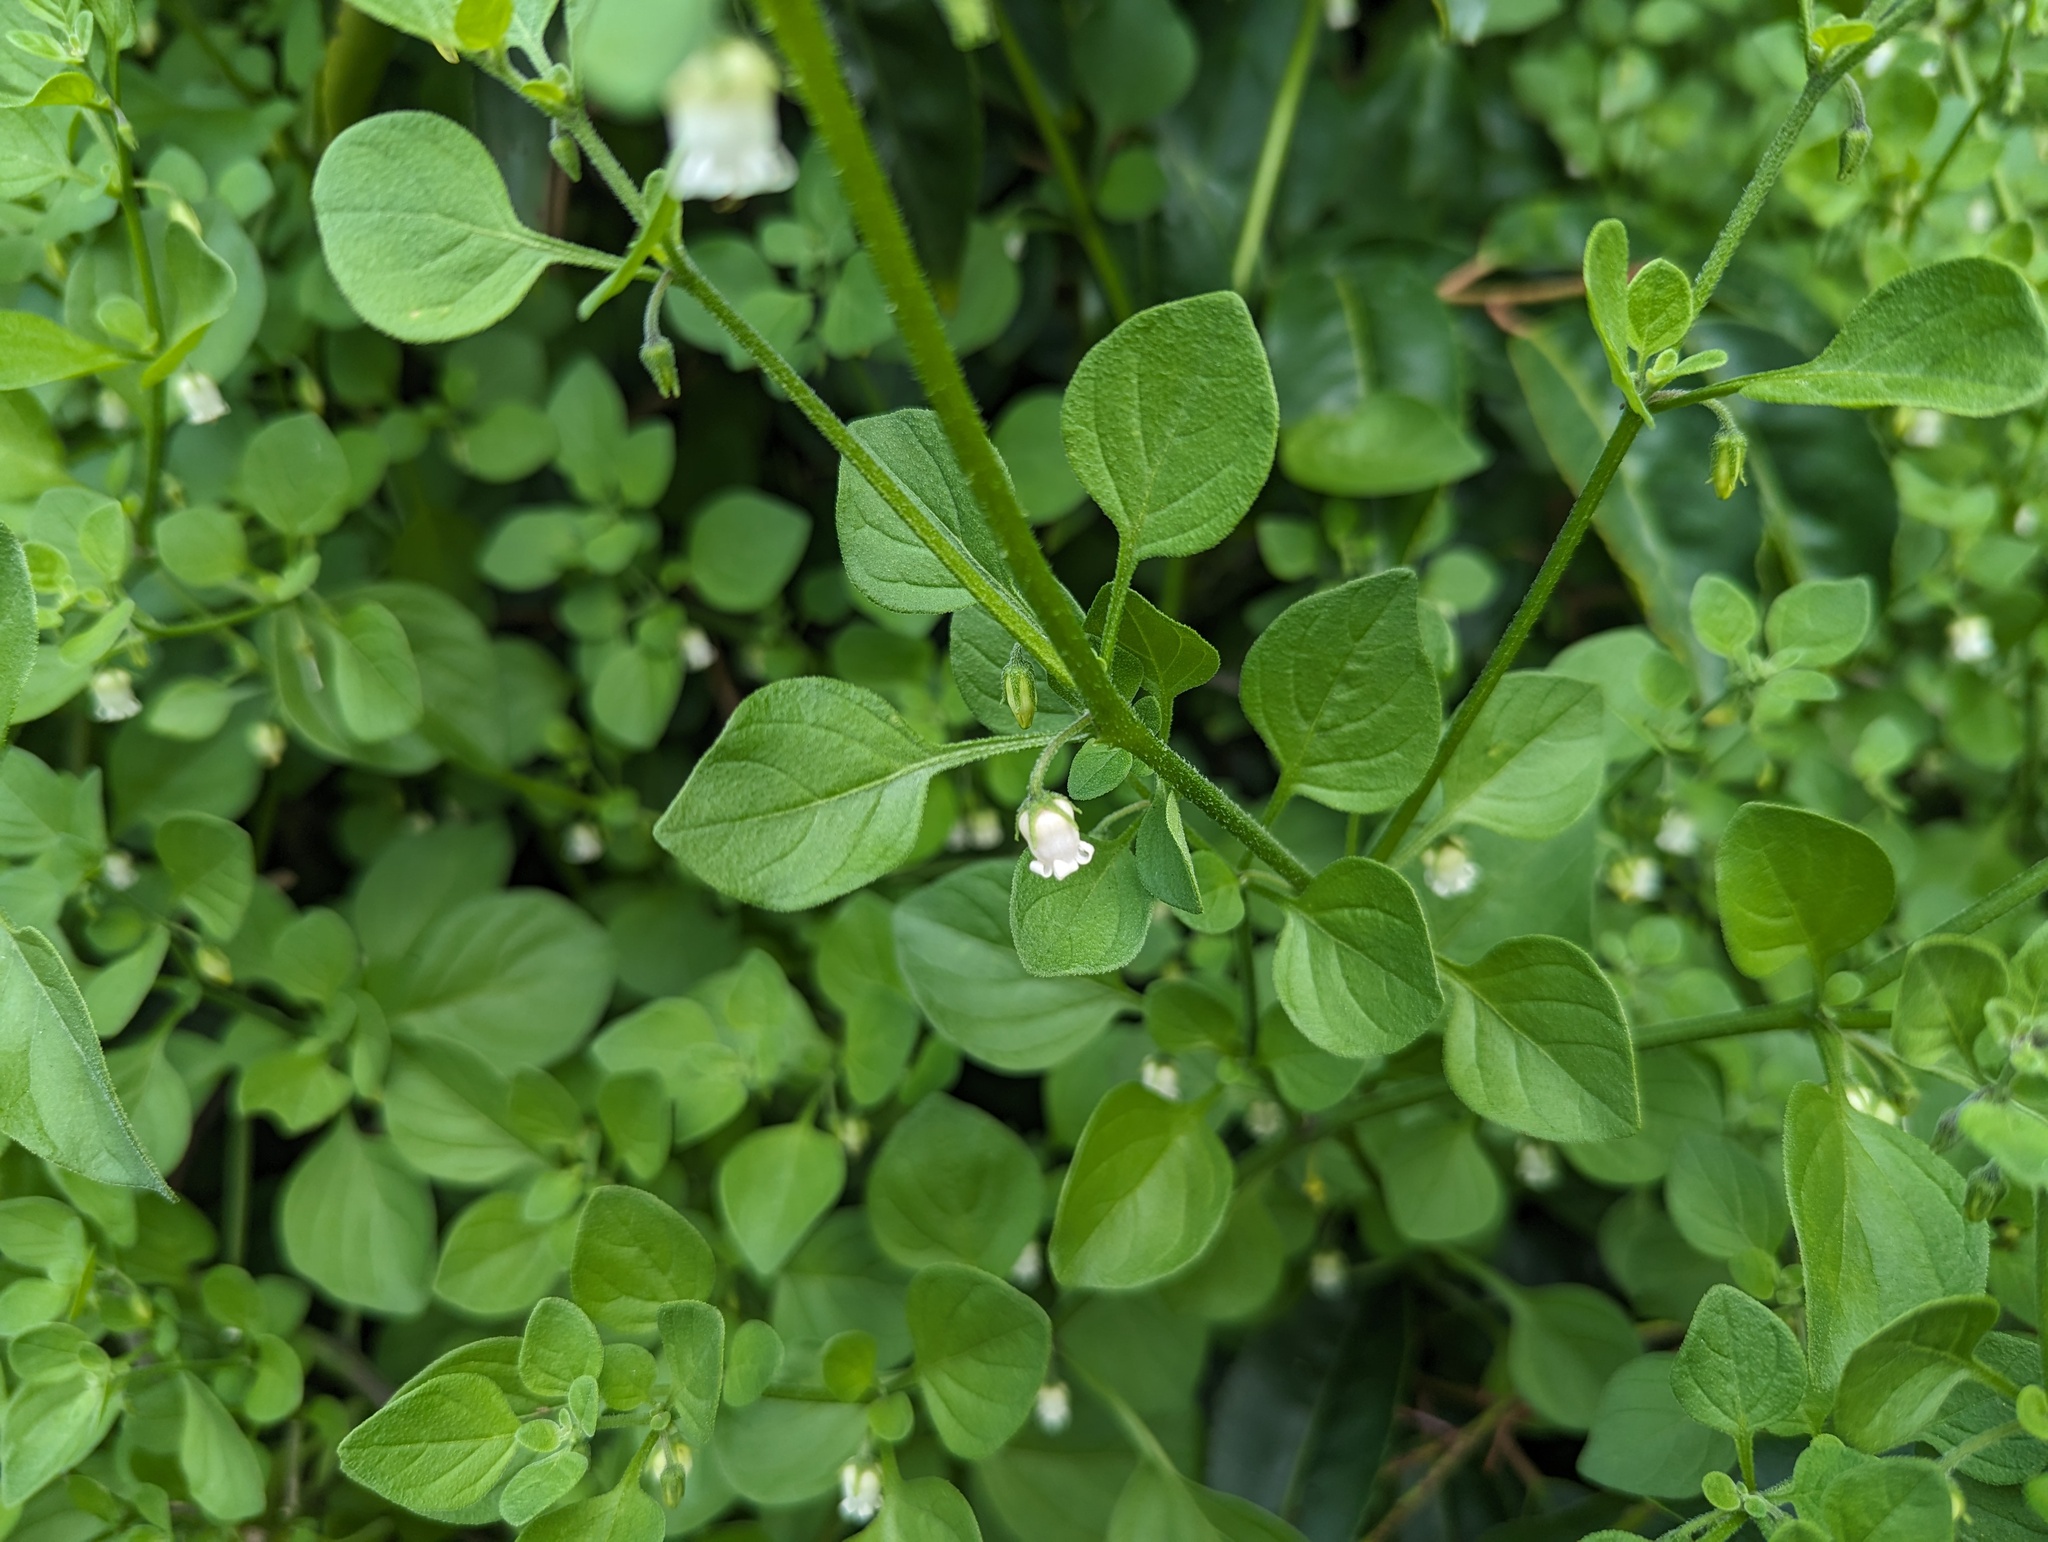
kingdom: Plantae
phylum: Tracheophyta
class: Magnoliopsida
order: Solanales
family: Solanaceae
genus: Salpichroa
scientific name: Salpichroa origanifolia
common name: Lily-of-the-valley-vine
